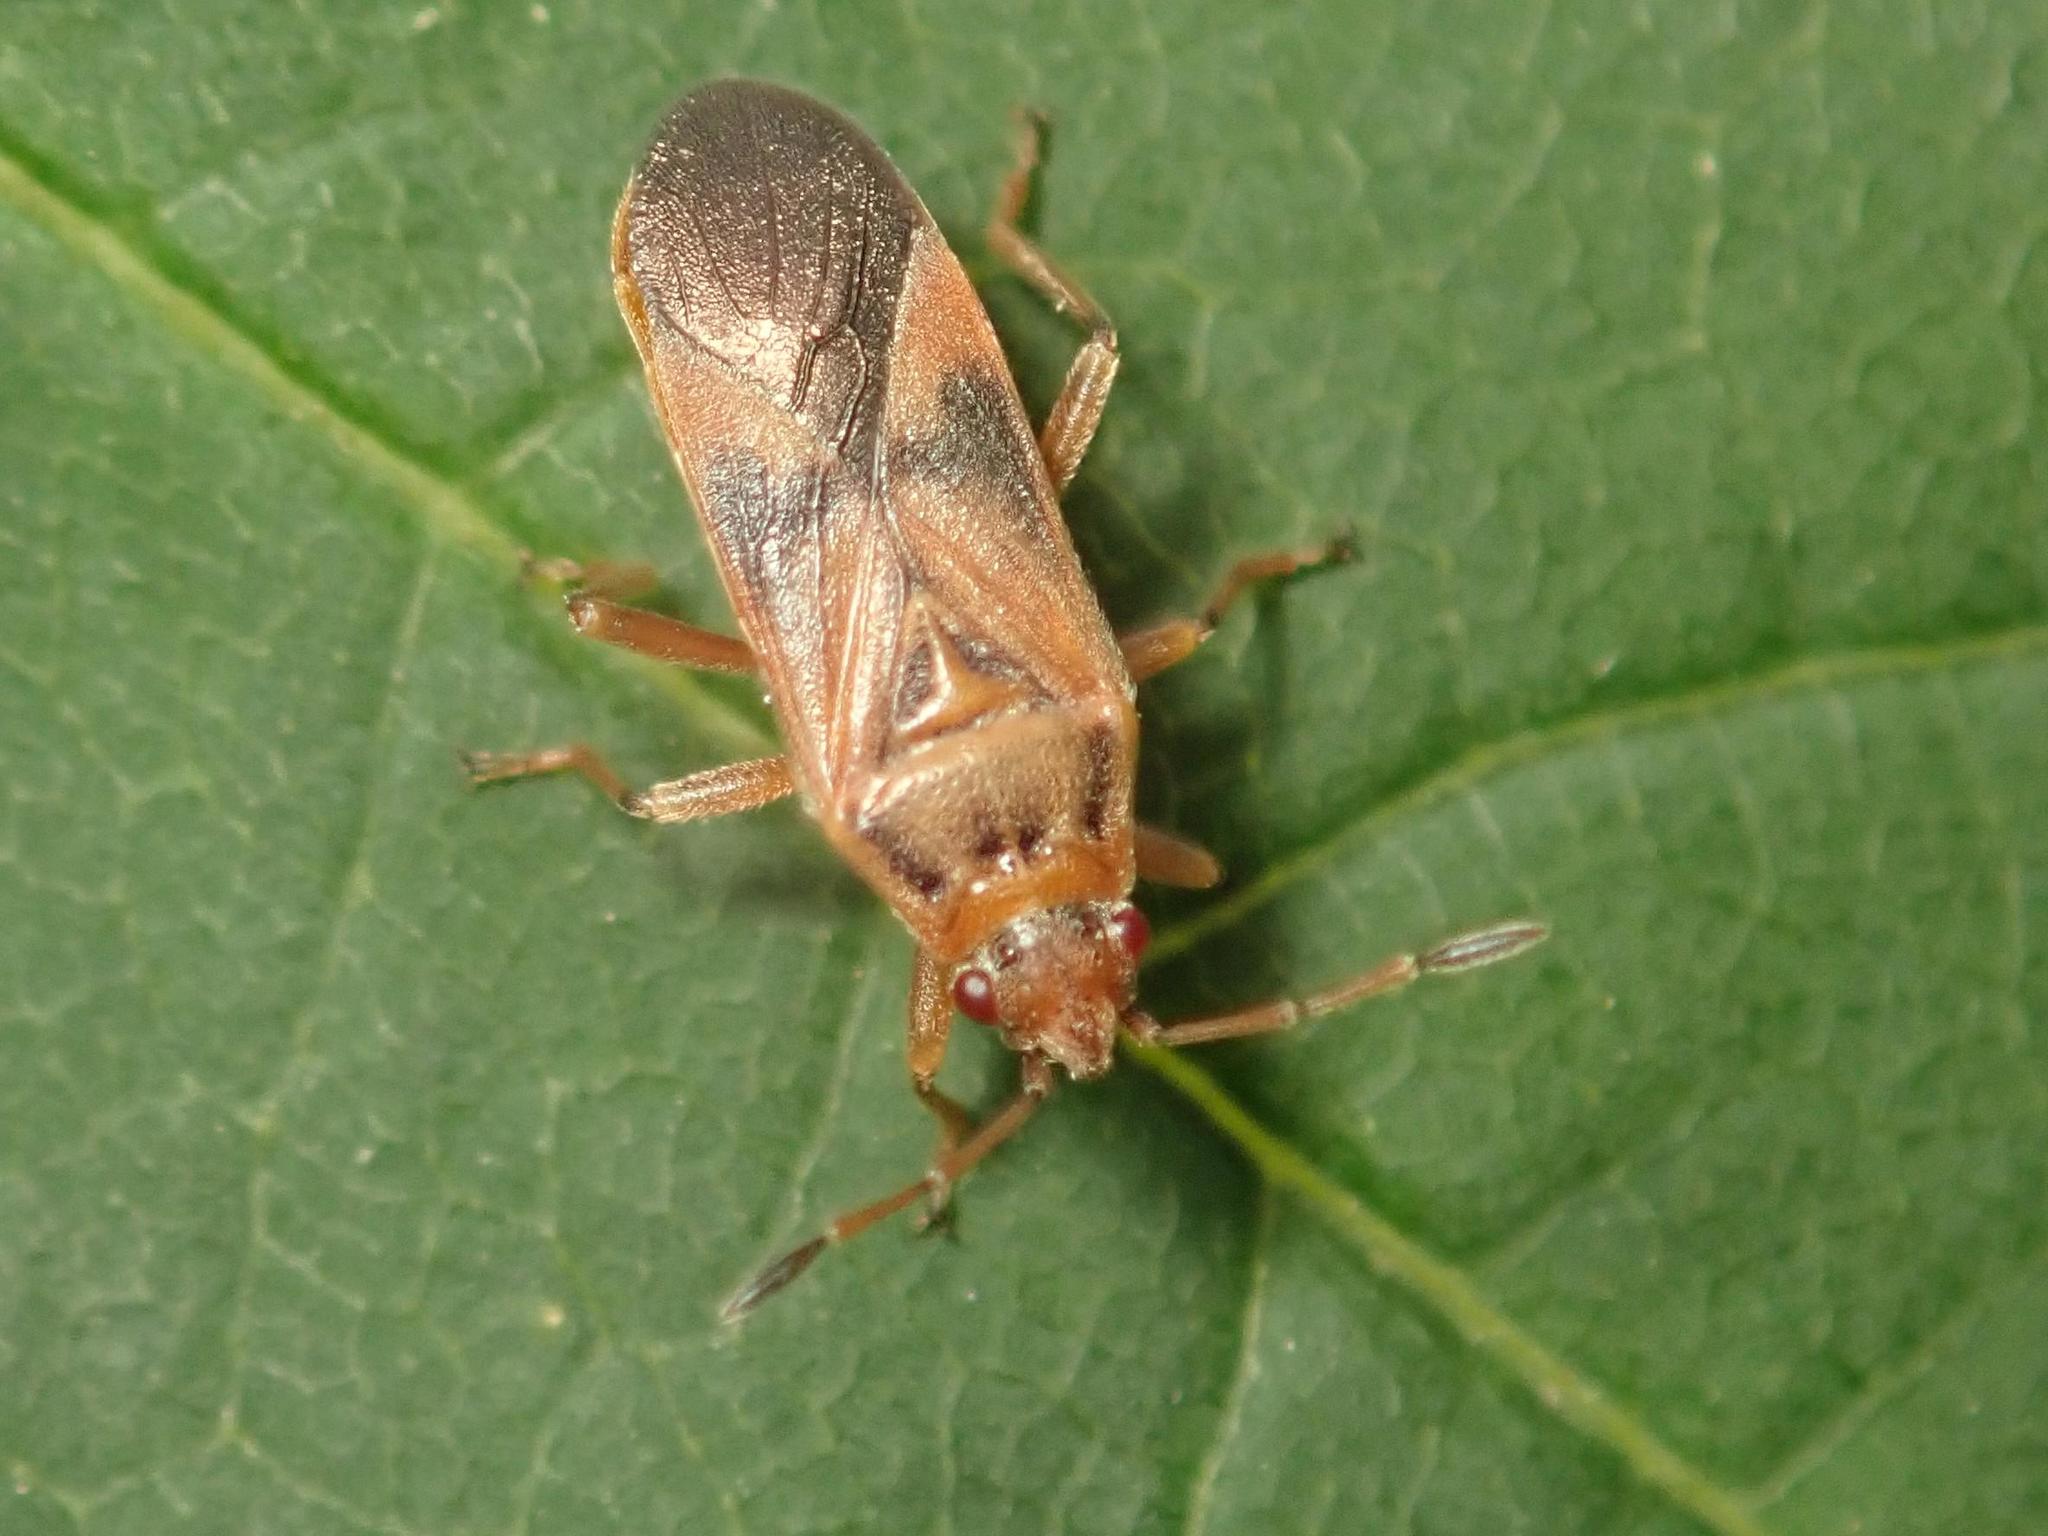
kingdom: Animalia
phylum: Arthropoda
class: Insecta
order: Hemiptera
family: Lygaeidae
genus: Arocatus
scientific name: Arocatus roeselii
